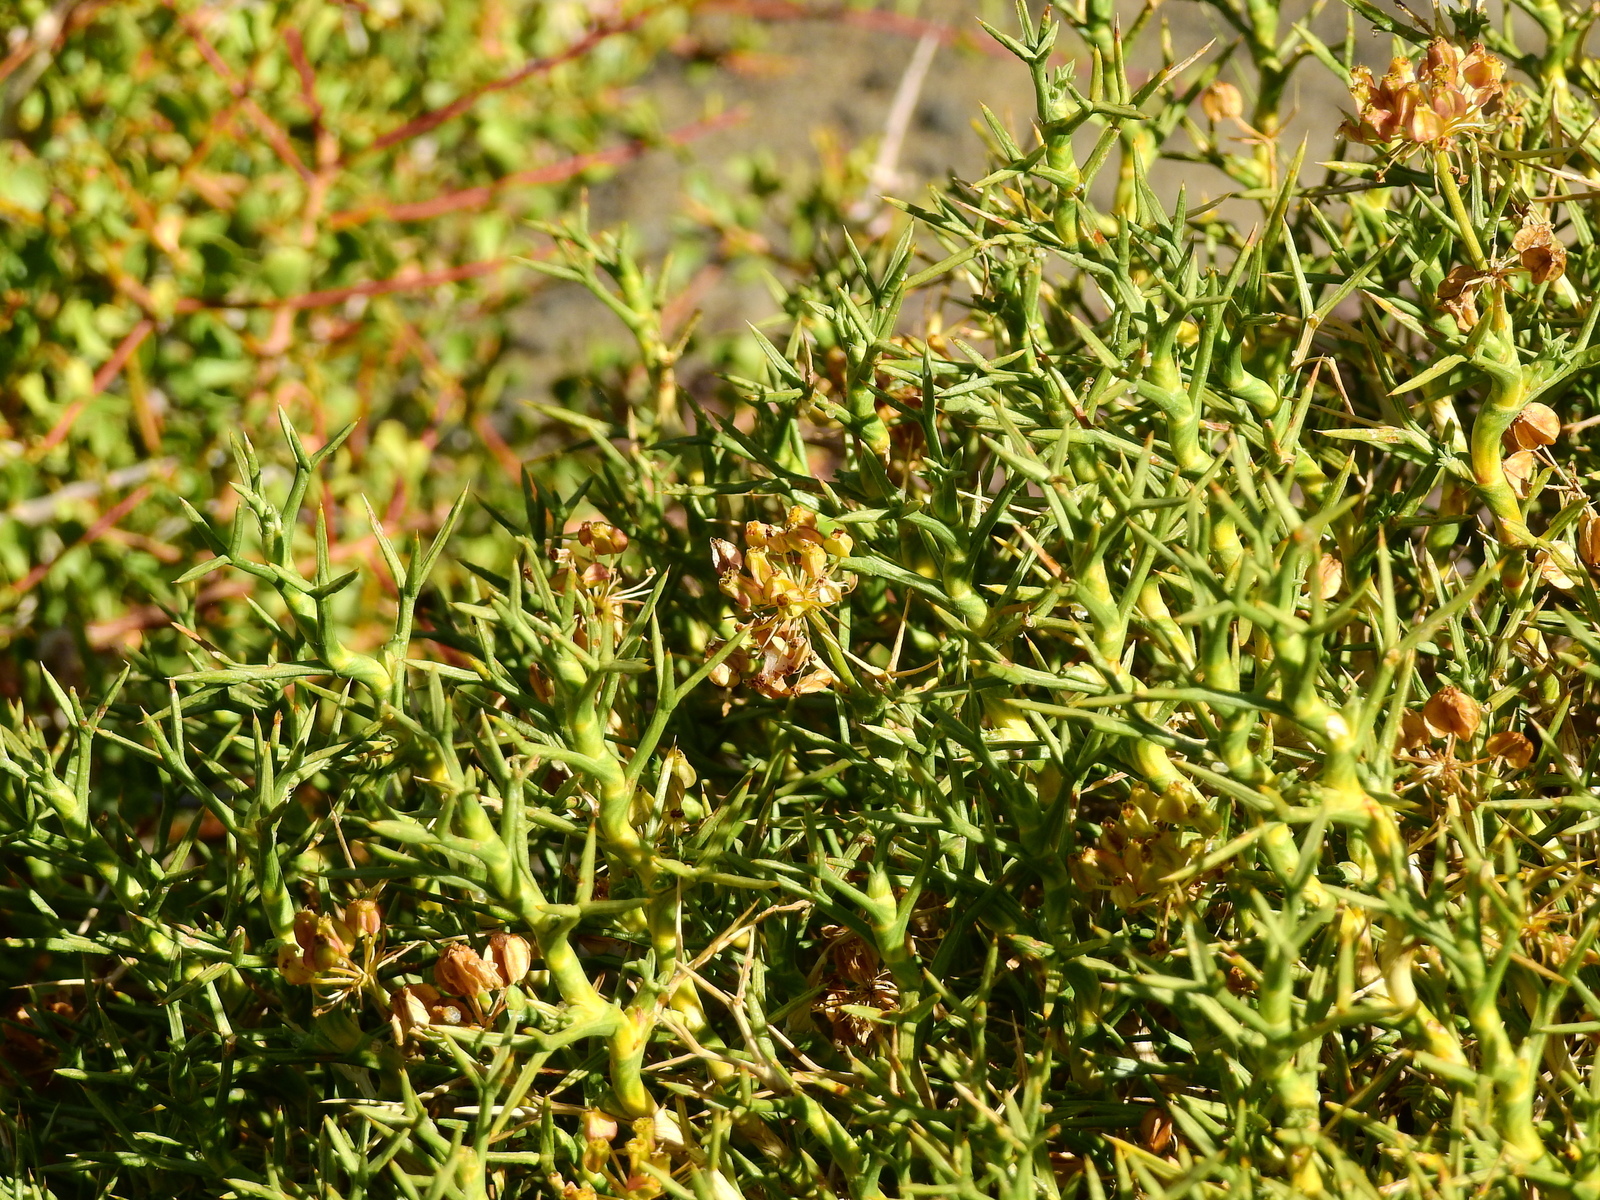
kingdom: Plantae
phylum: Tracheophyta
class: Magnoliopsida
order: Apiales
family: Apiaceae
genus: Azorella
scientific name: Azorella prolifera
